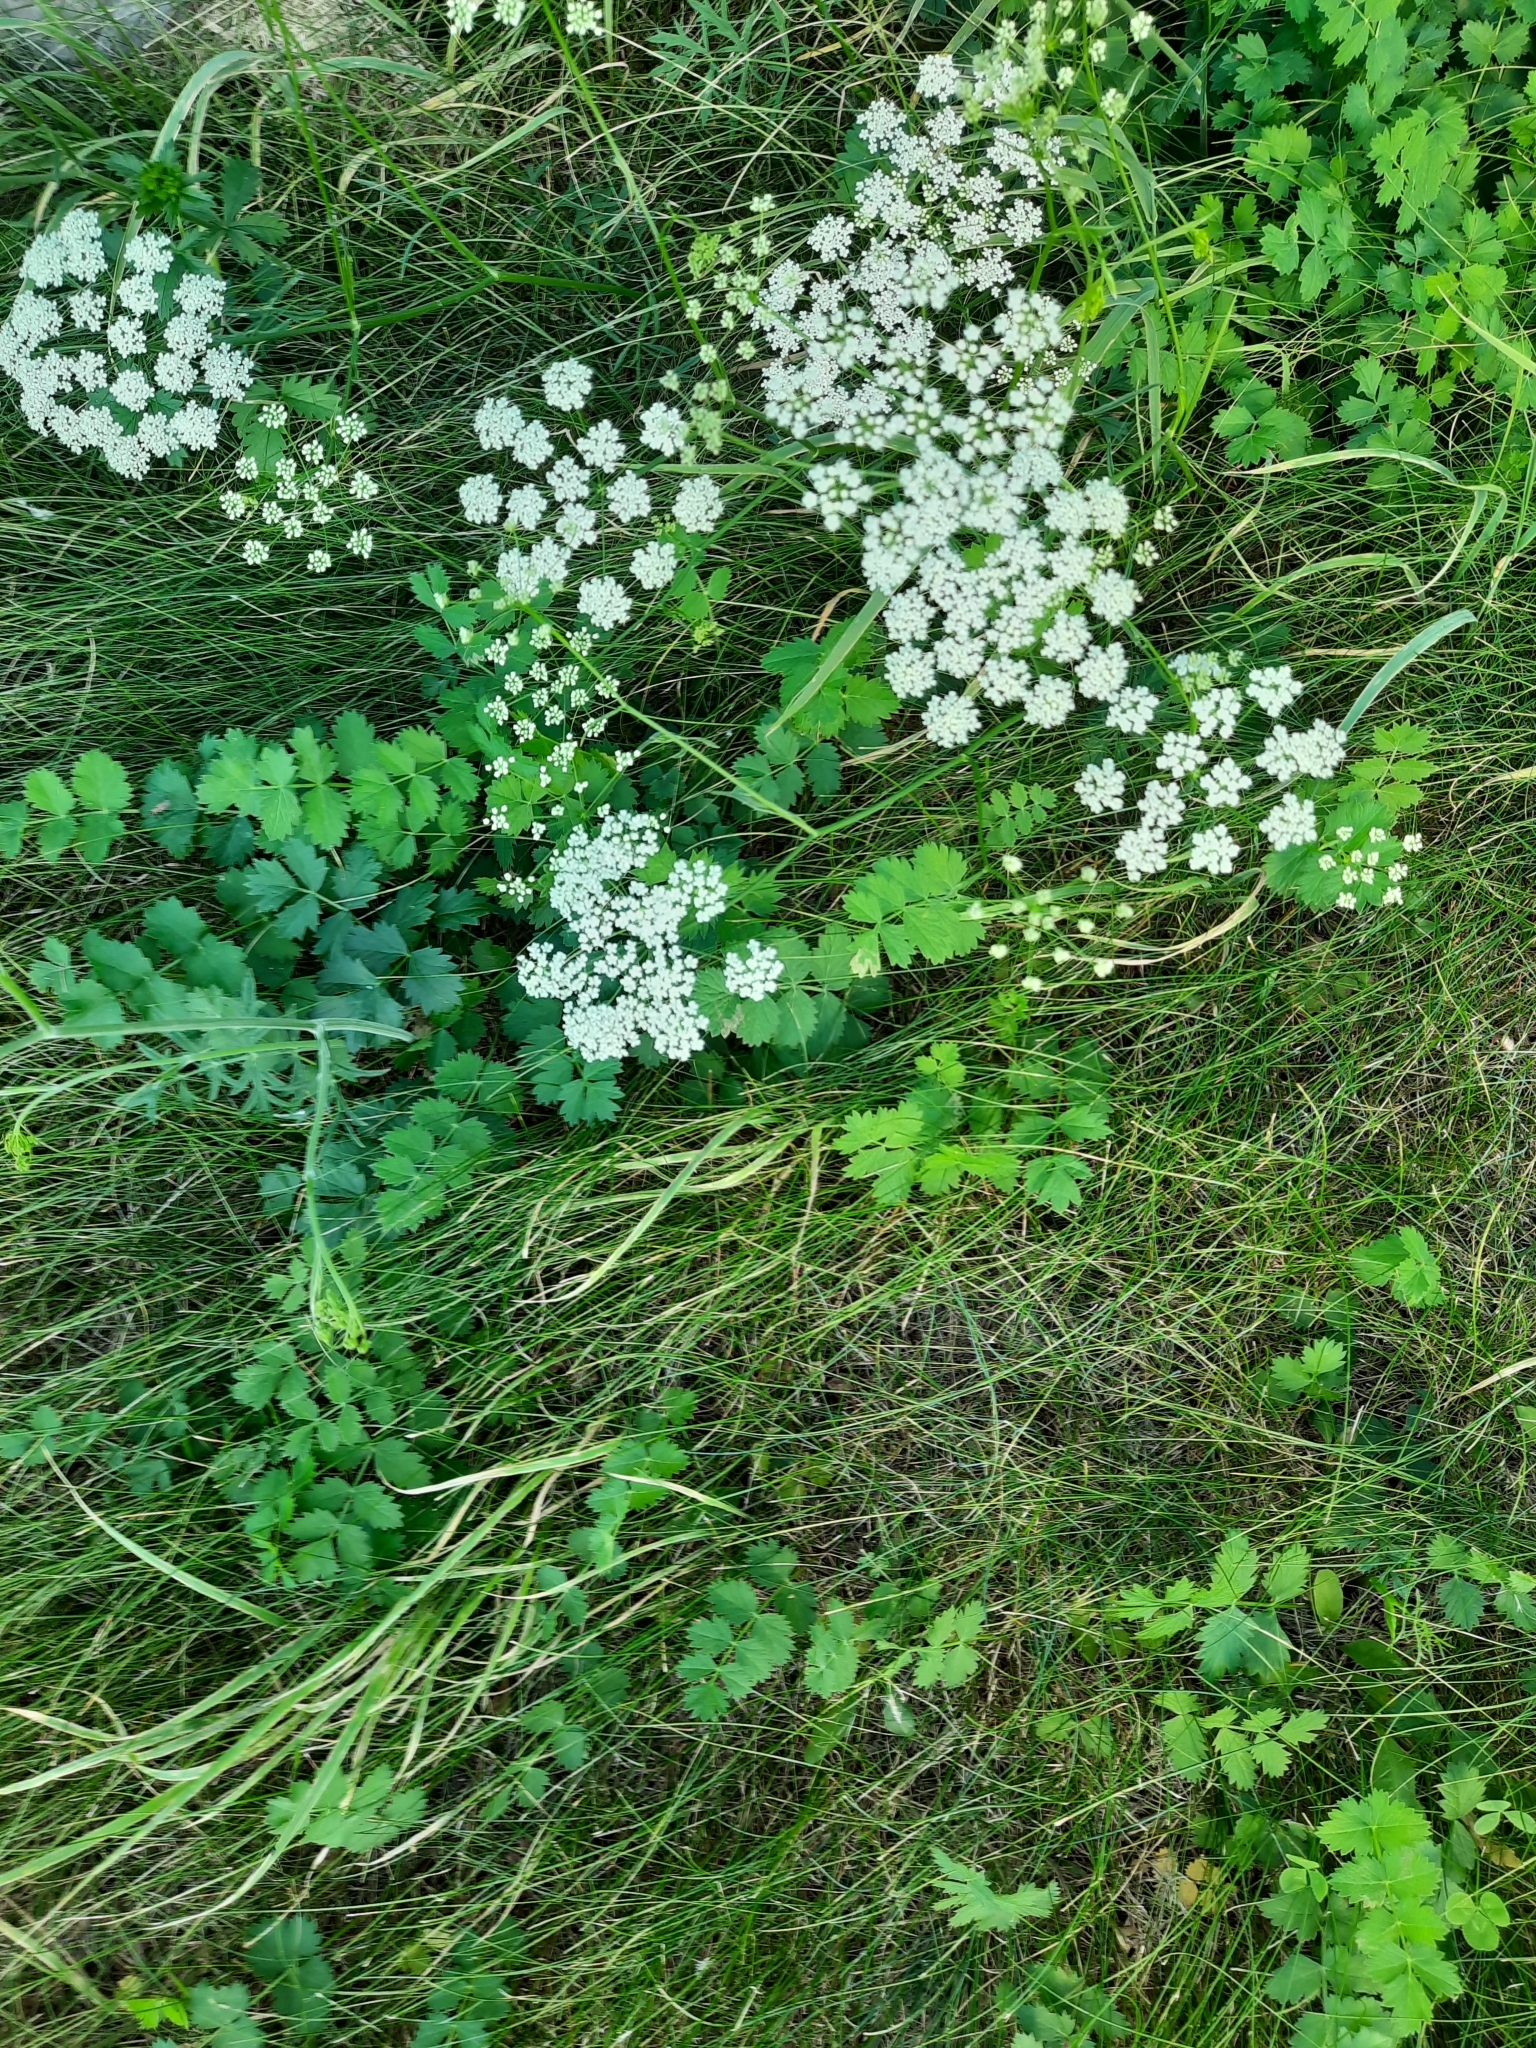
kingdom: Plantae
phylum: Tracheophyta
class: Magnoliopsida
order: Apiales
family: Apiaceae
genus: Pimpinella
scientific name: Pimpinella saxifraga
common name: Burnet-saxifrage
